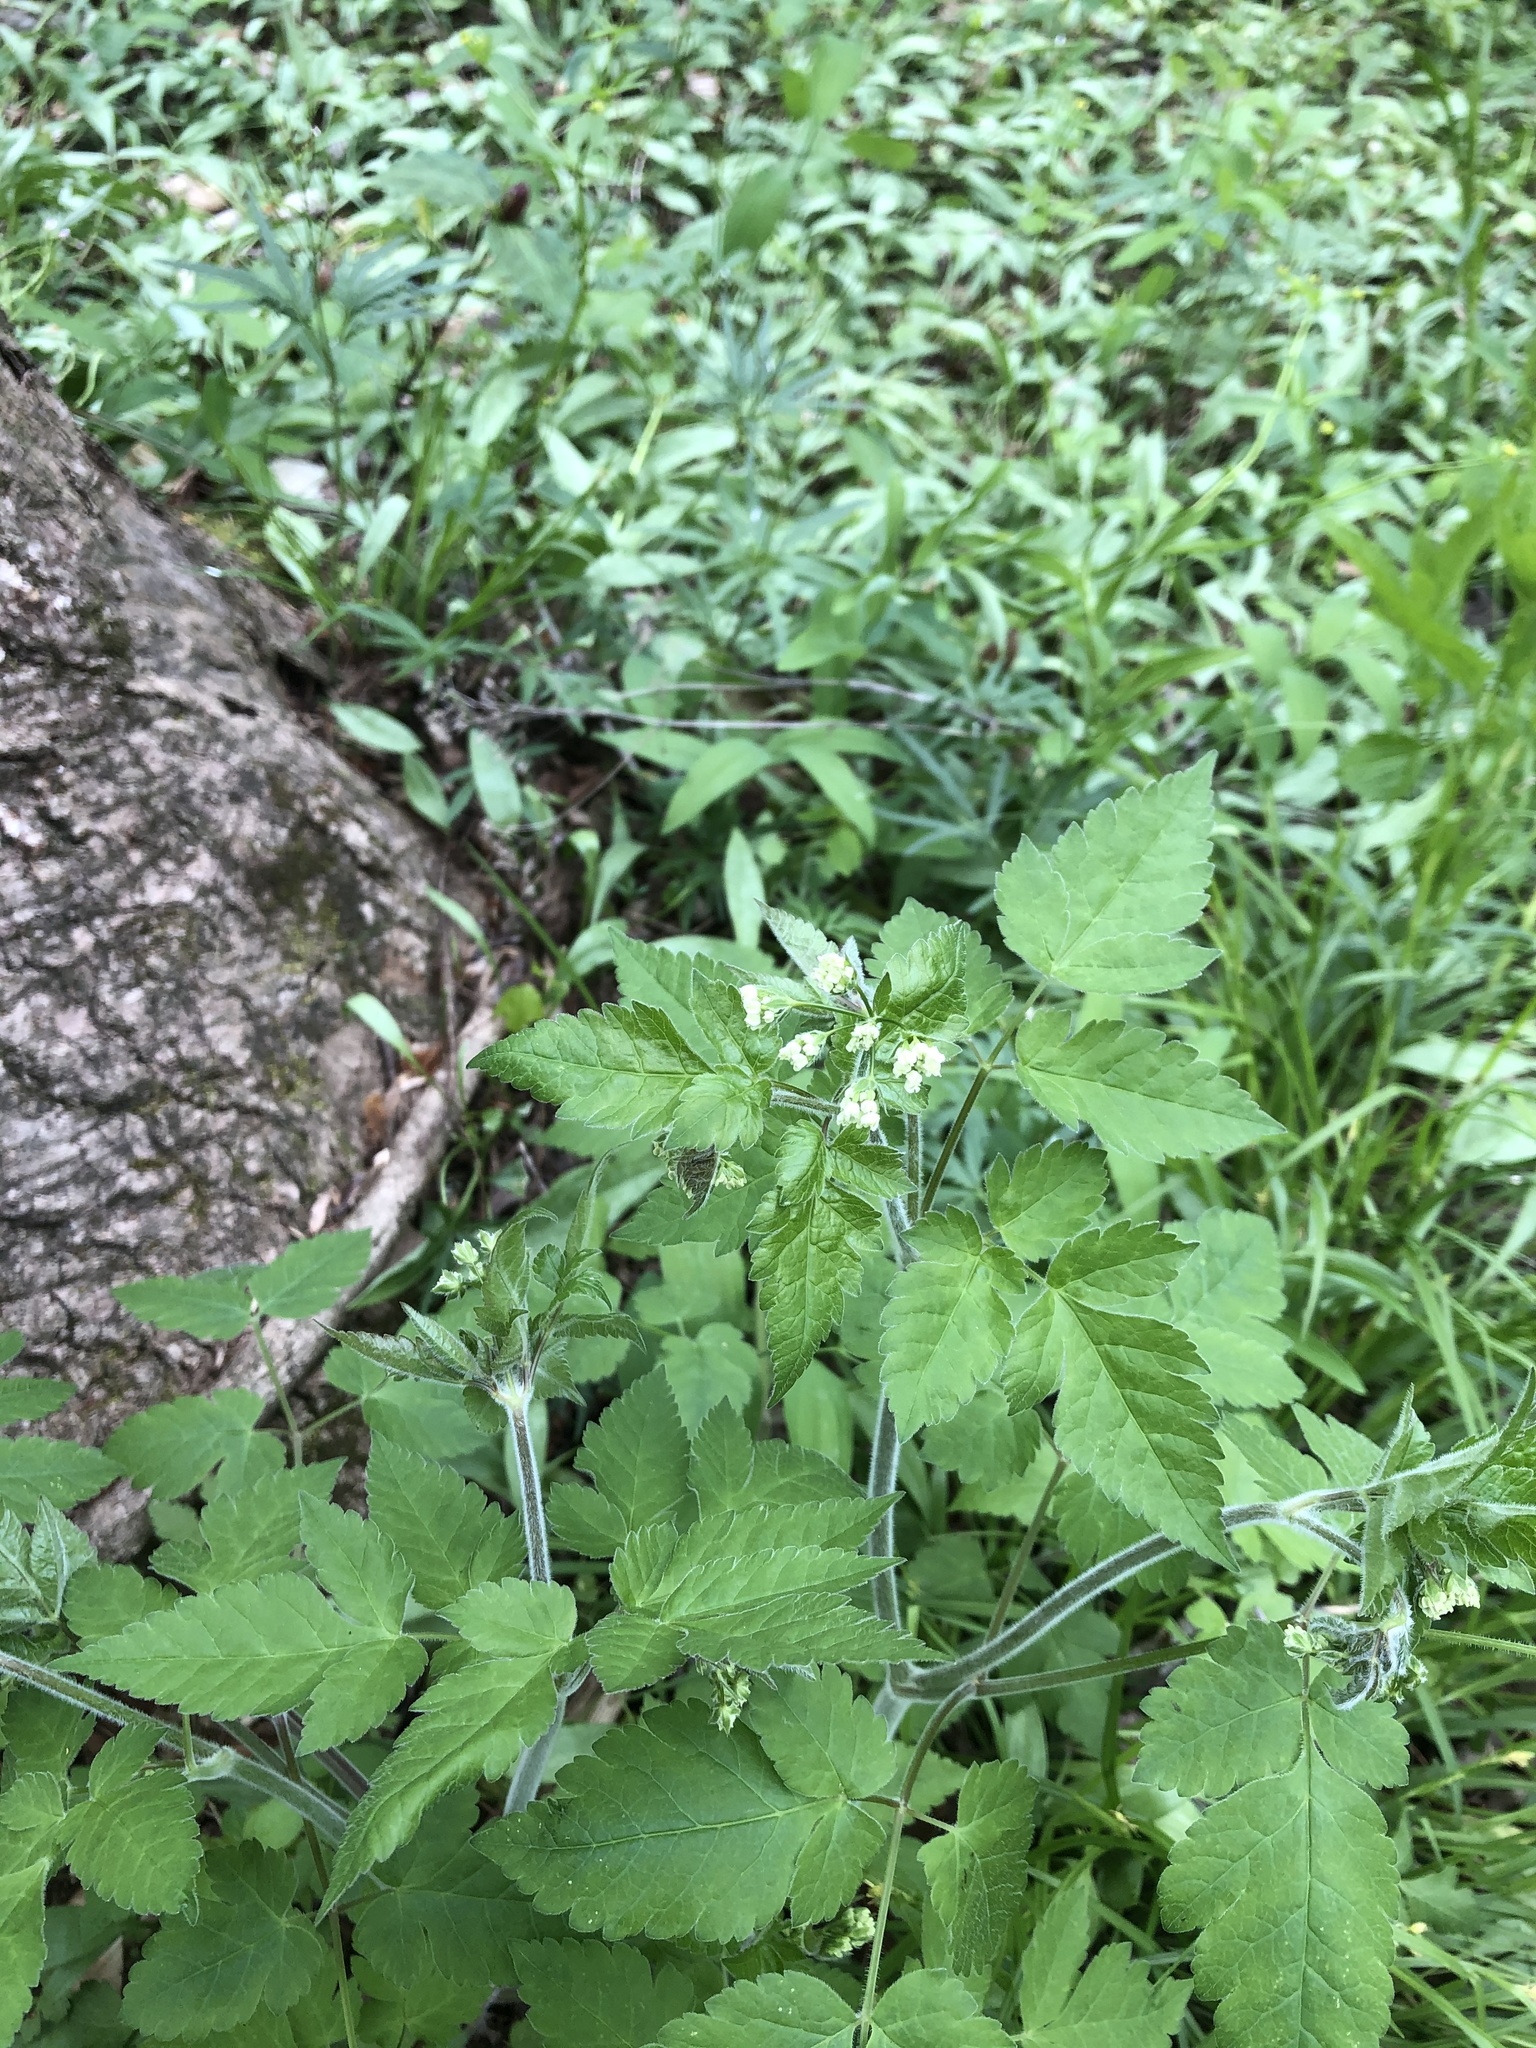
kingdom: Plantae
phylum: Tracheophyta
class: Magnoliopsida
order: Apiales
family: Apiaceae
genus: Osmorhiza
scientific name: Osmorhiza claytonii
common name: Hairy sweet cicely
